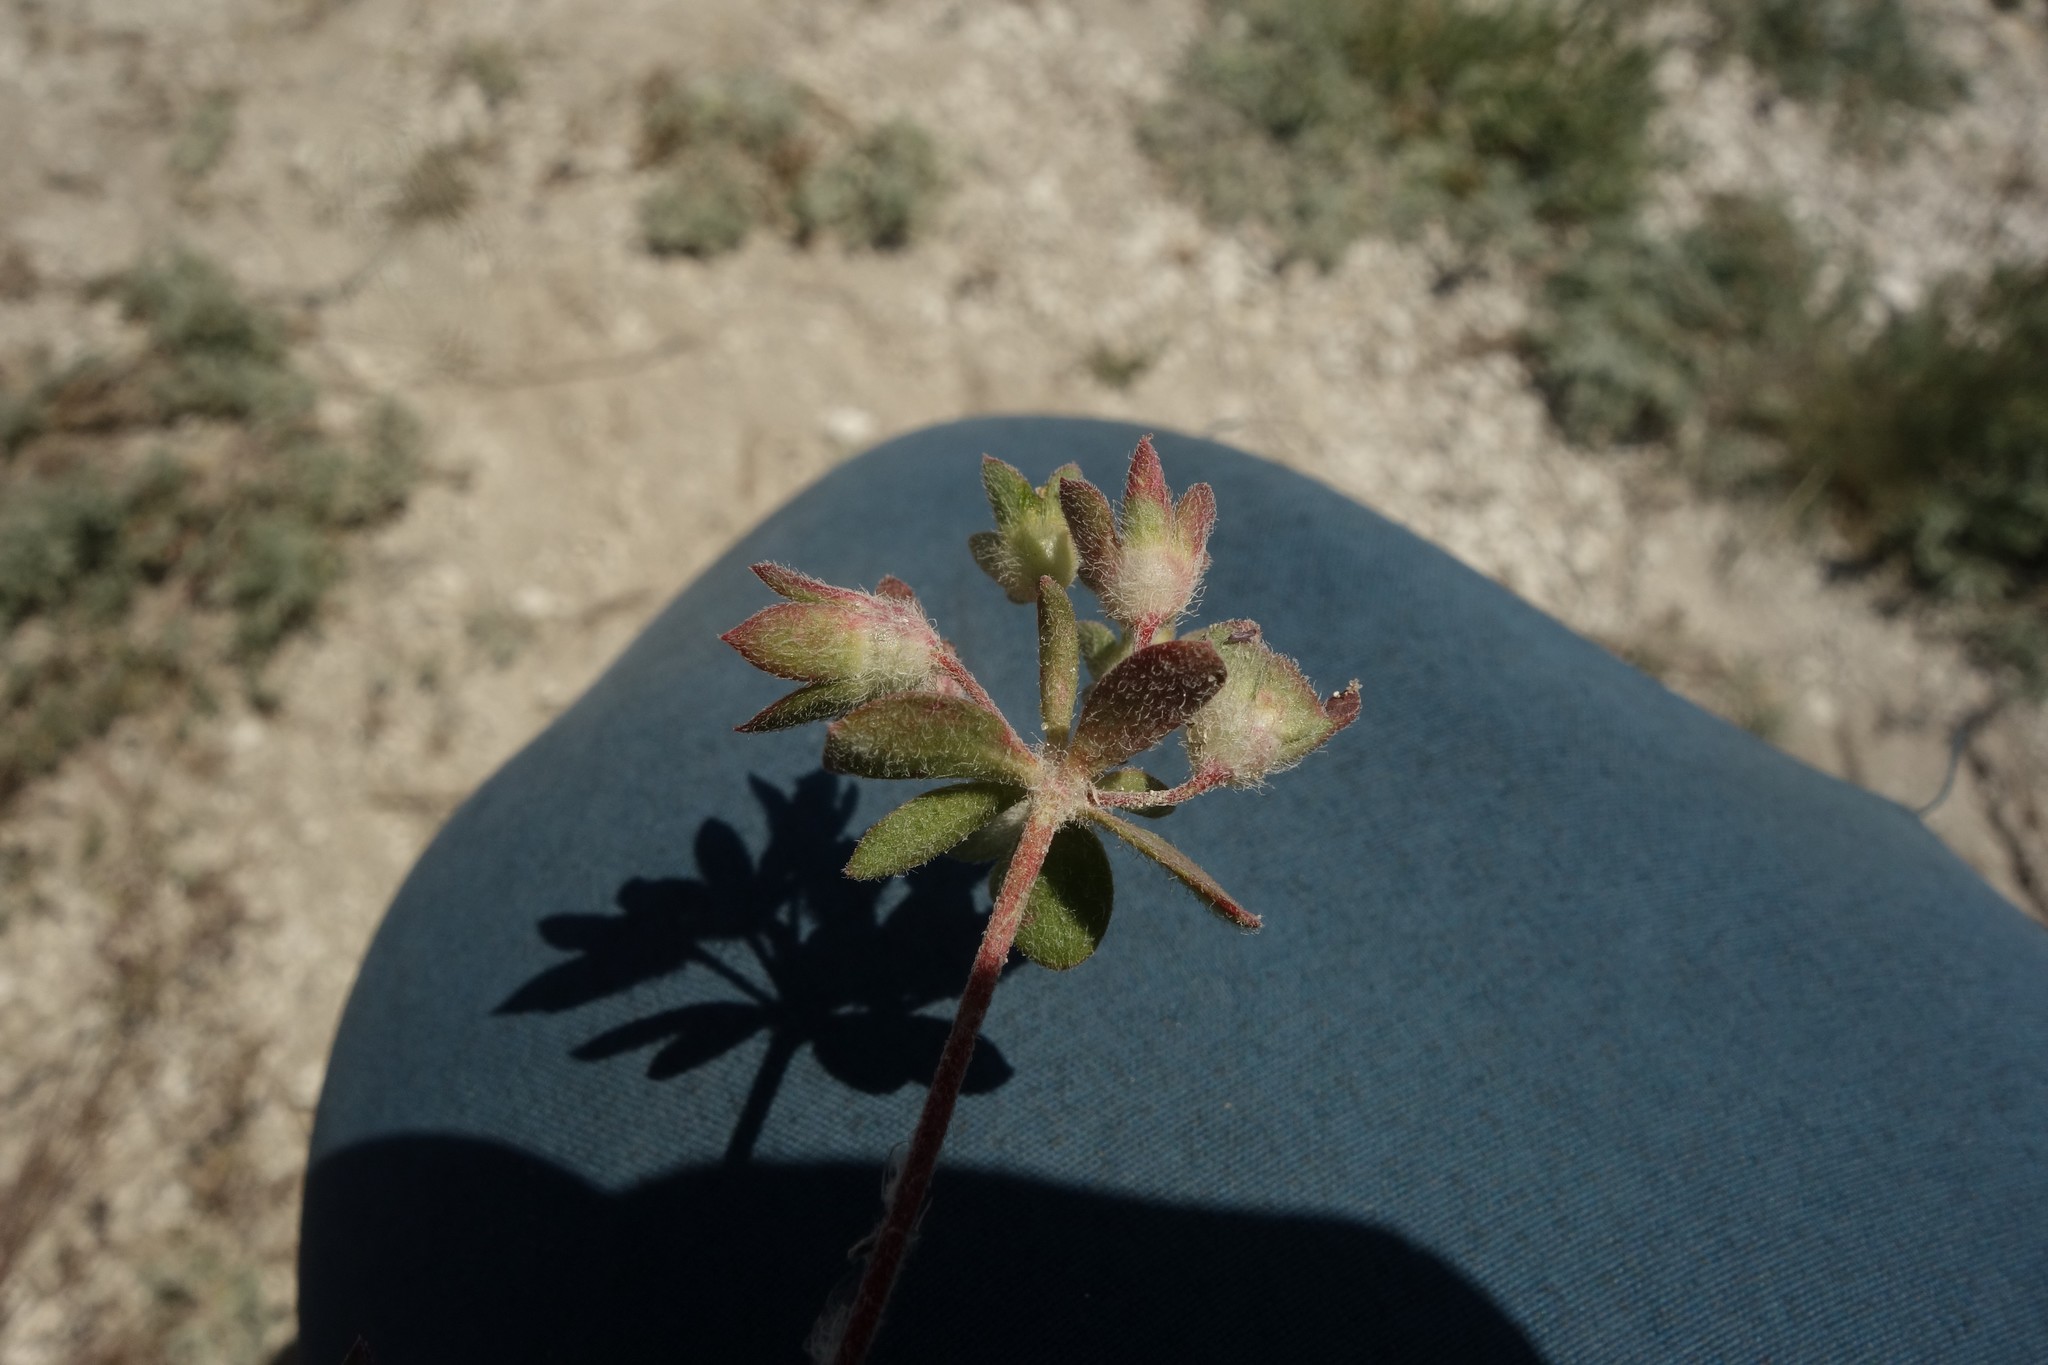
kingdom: Plantae
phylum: Tracheophyta
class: Magnoliopsida
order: Ericales
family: Primulaceae
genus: Androsace
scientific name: Androsace maxima
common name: Annual androsace
